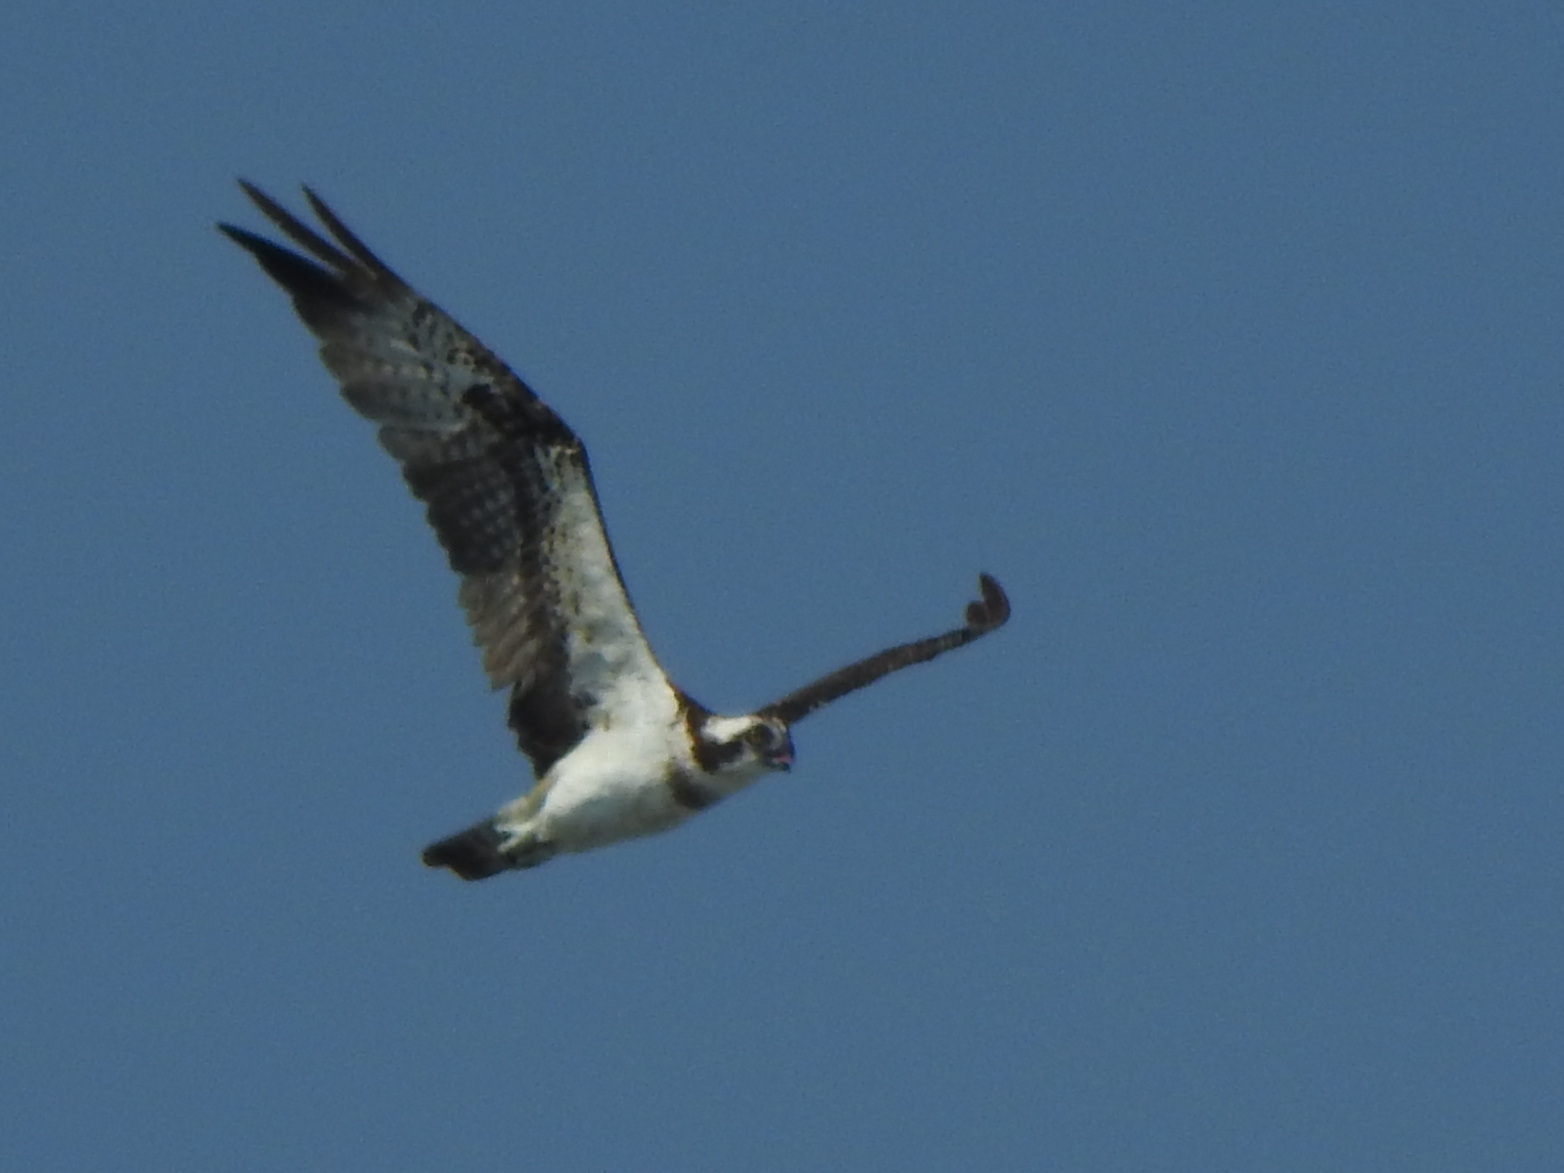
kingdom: Animalia
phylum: Chordata
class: Aves
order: Accipitriformes
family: Pandionidae
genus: Pandion
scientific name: Pandion haliaetus
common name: Osprey
